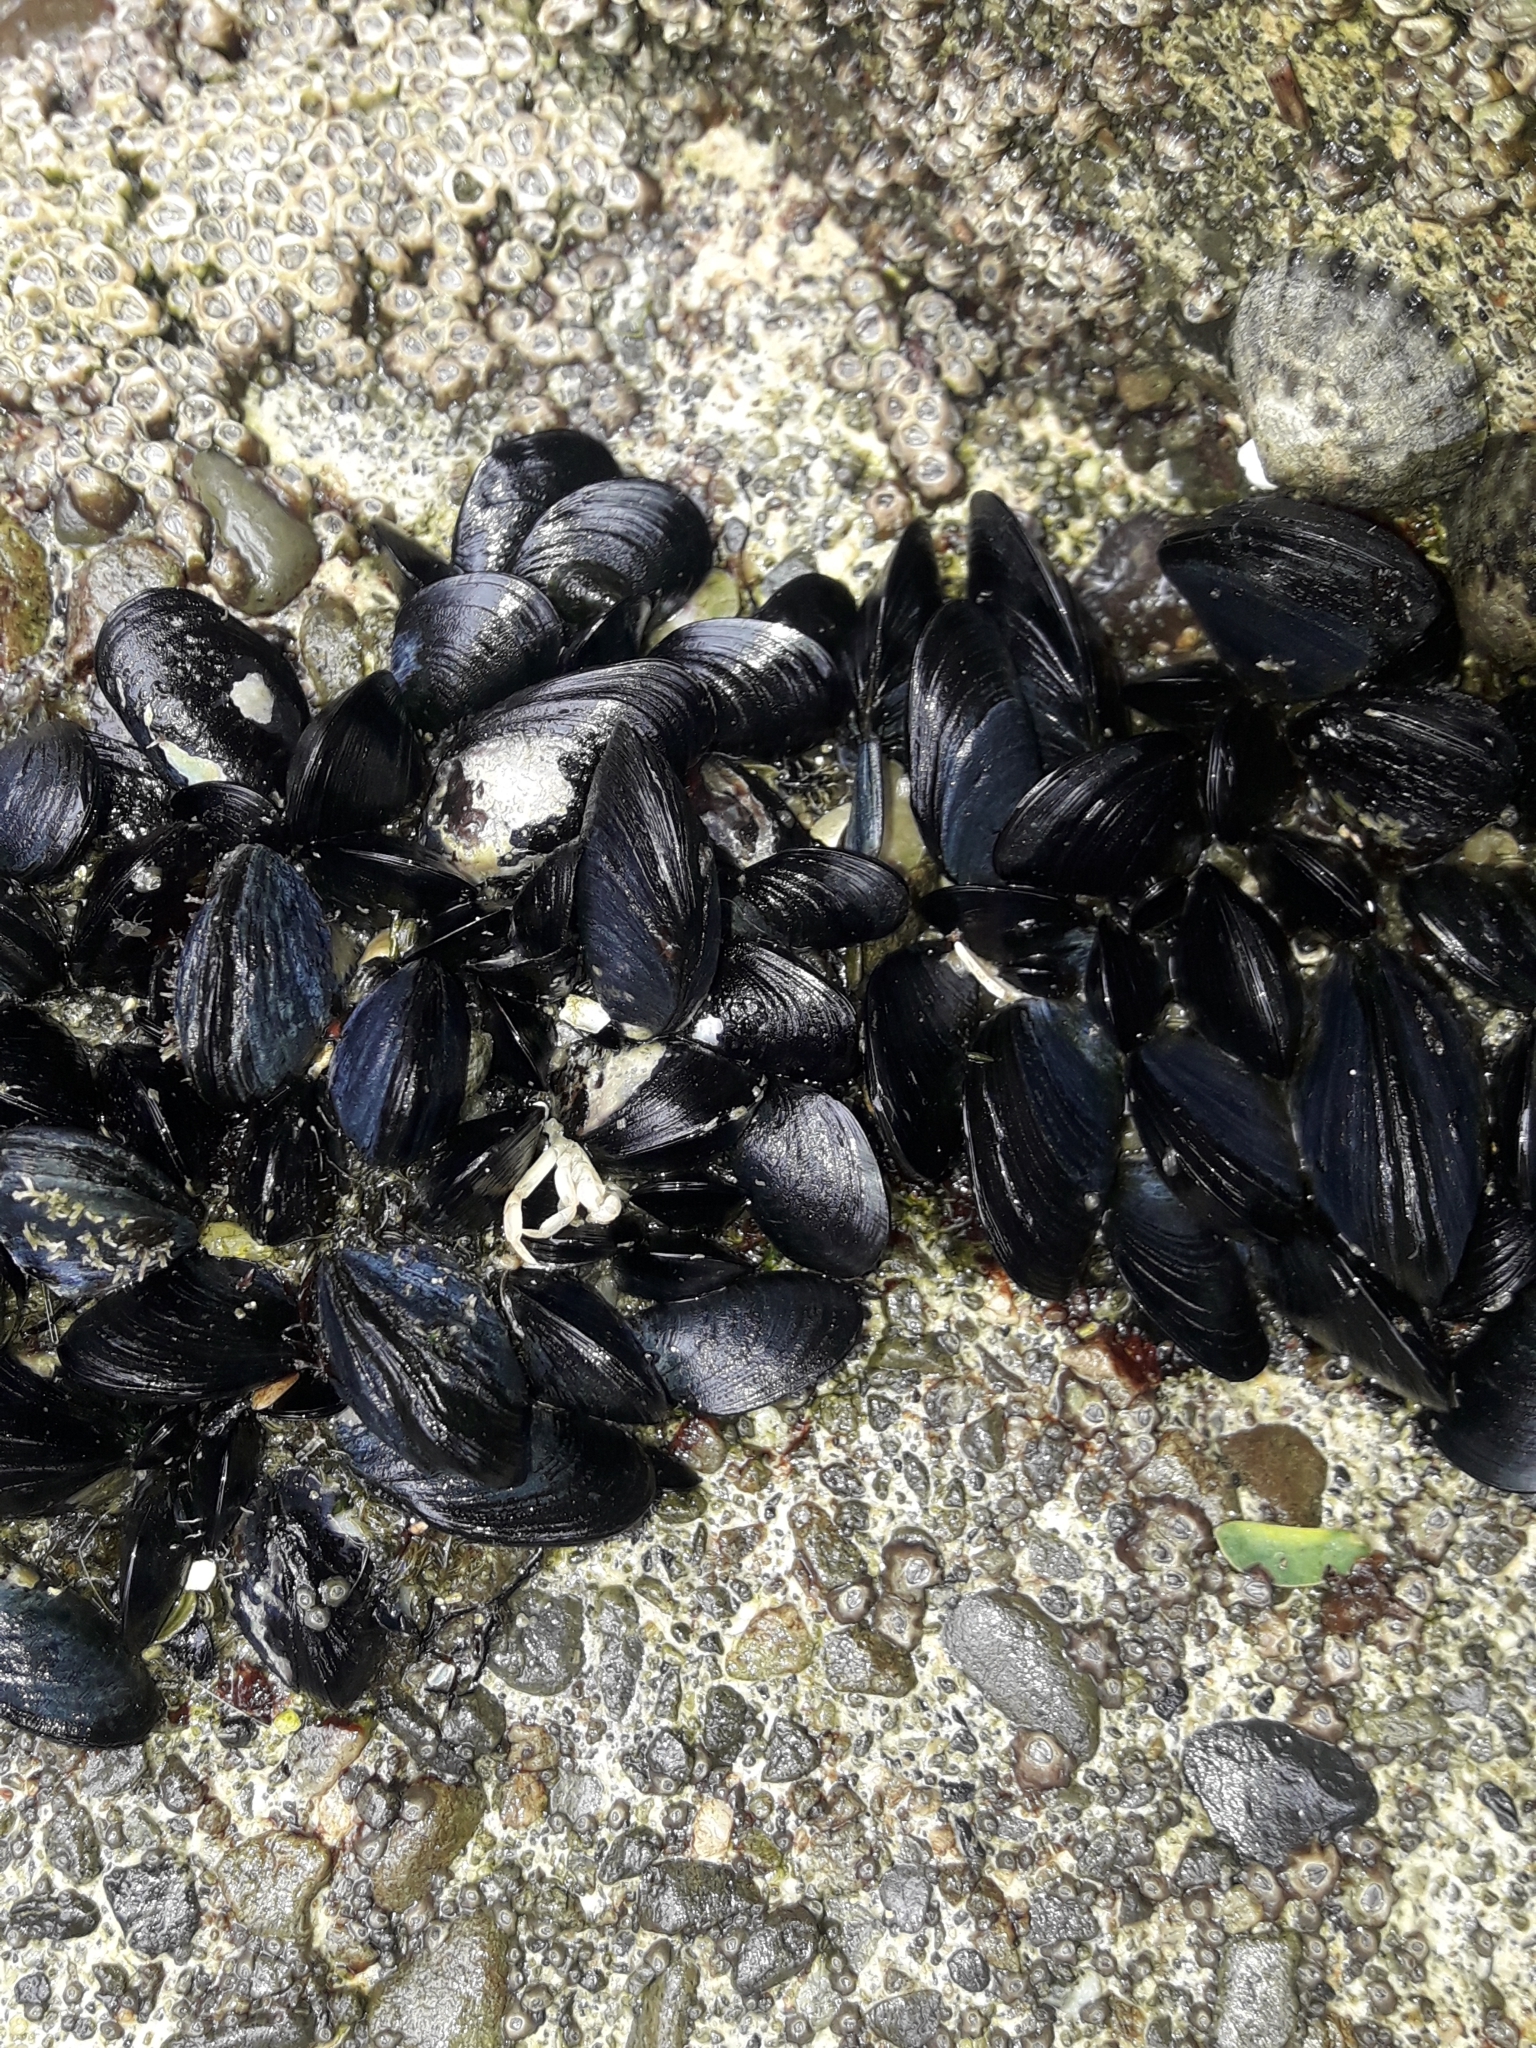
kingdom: Animalia
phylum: Mollusca
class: Bivalvia
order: Mytilida
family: Mytilidae
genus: Mytilus
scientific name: Mytilus planulatus
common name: Australian mussel
